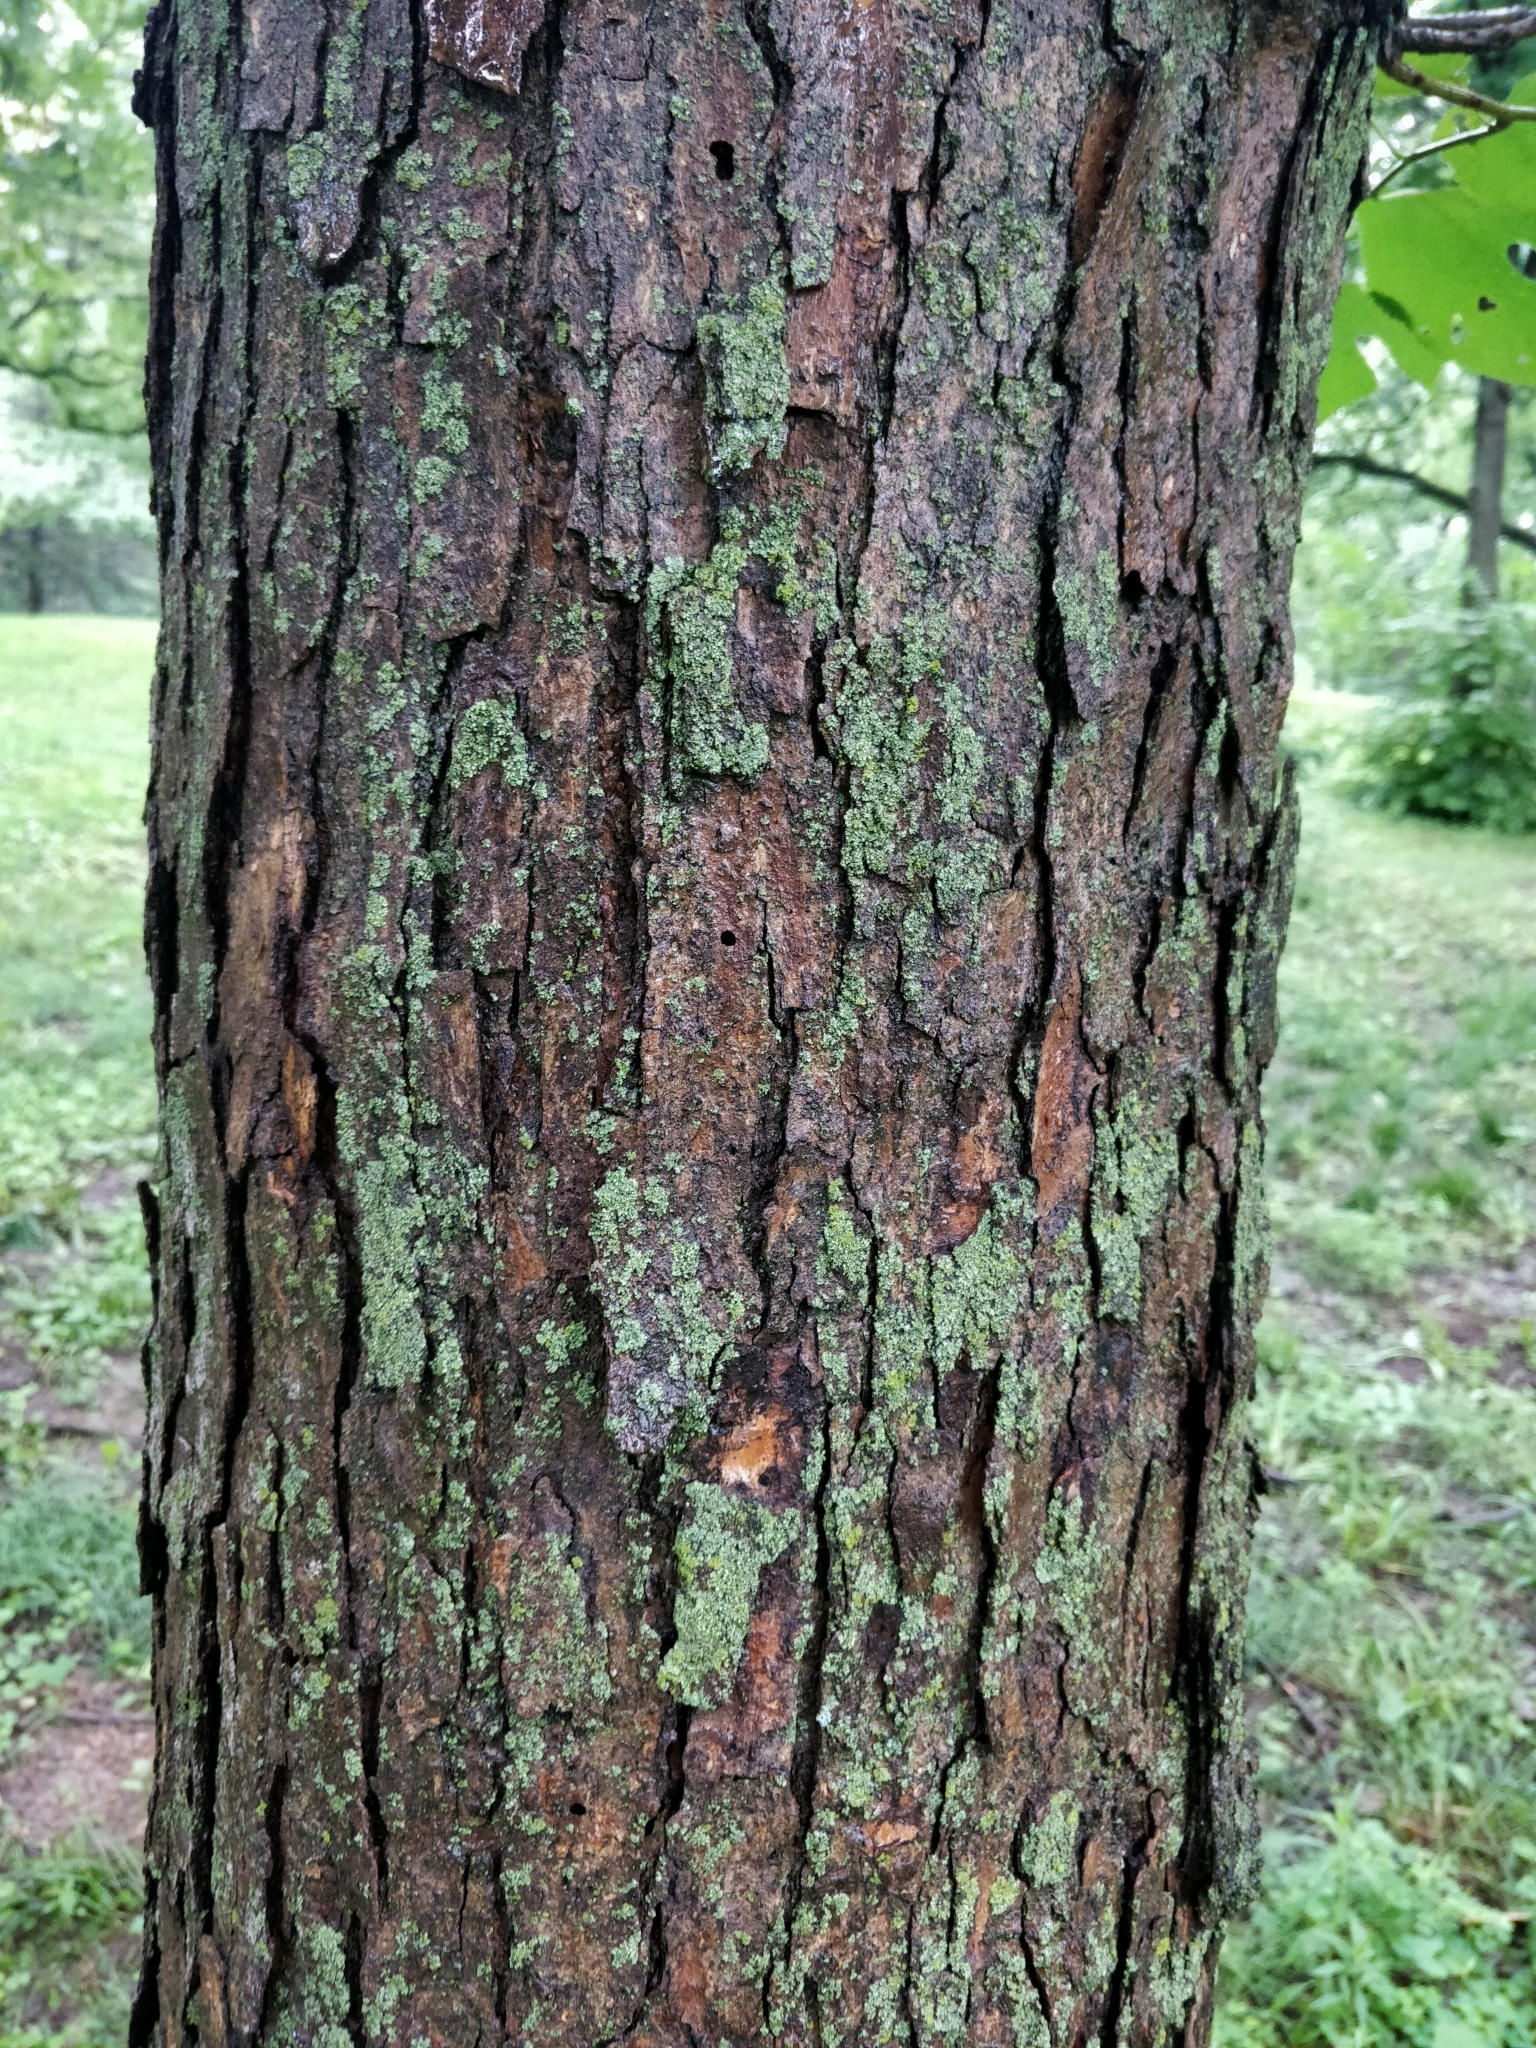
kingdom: Plantae
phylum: Tracheophyta
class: Magnoliopsida
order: Rosales
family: Moraceae
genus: Morus
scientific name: Morus rubra
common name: Red mulberry
